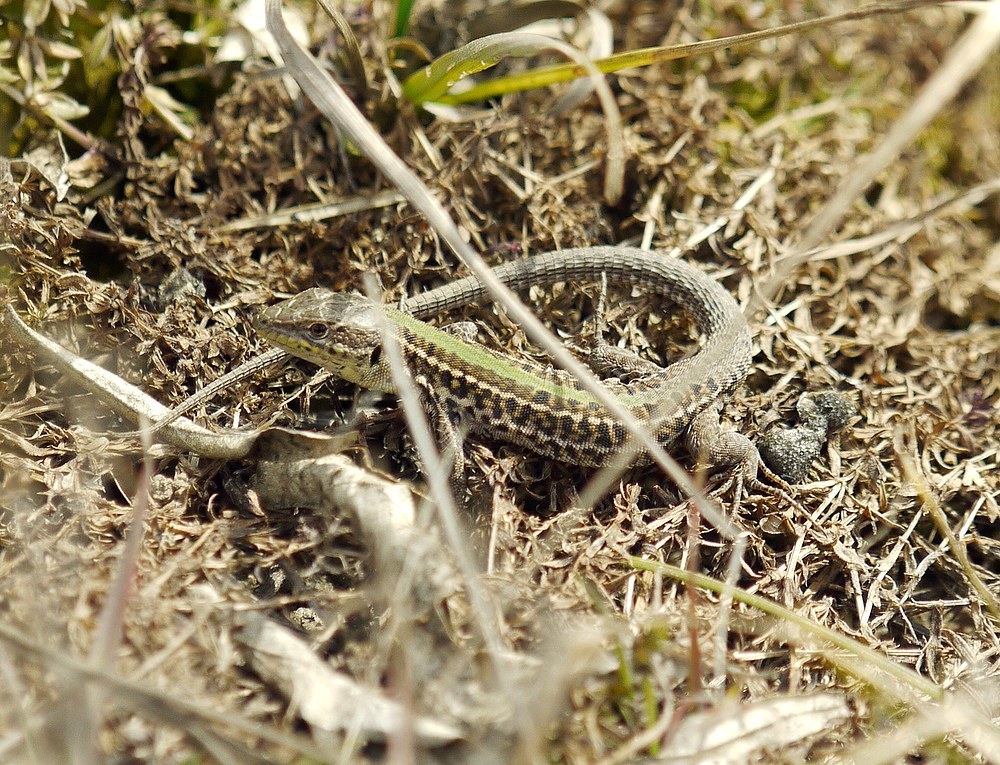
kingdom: Animalia
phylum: Chordata
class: Squamata
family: Lacertidae
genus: Podarcis
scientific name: Podarcis tauricus
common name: Balkan wall lizard
